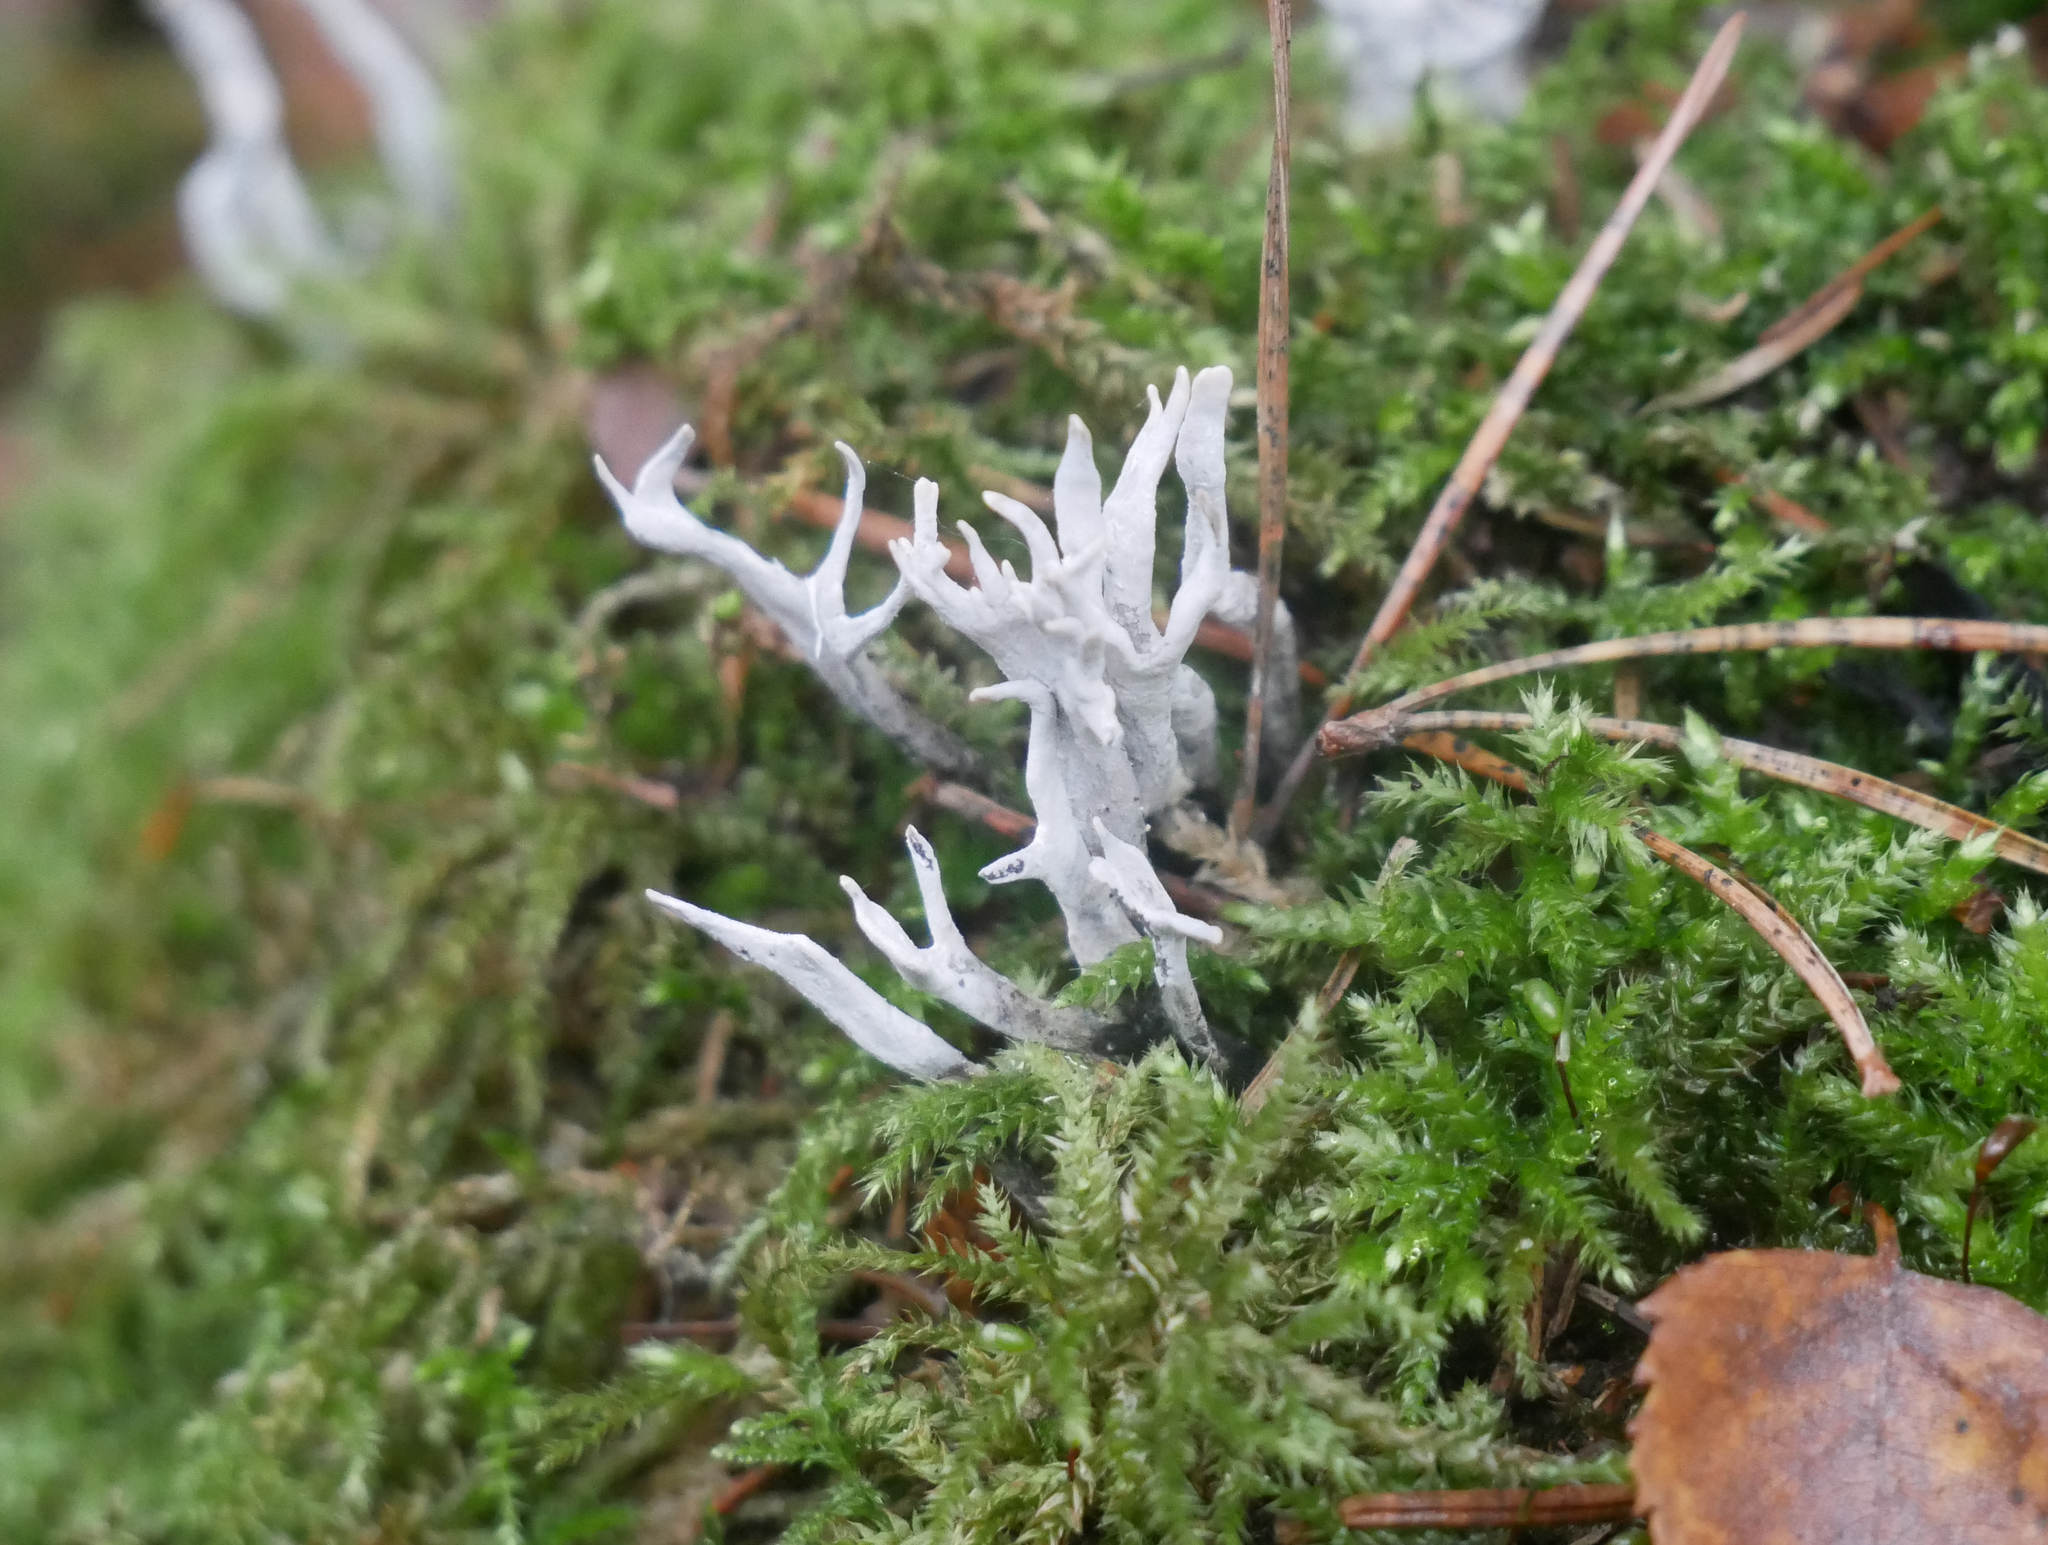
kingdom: Fungi
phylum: Ascomycota
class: Sordariomycetes
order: Xylariales
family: Xylariaceae
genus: Xylaria
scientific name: Xylaria hypoxylon
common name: Candle-snuff fungus
